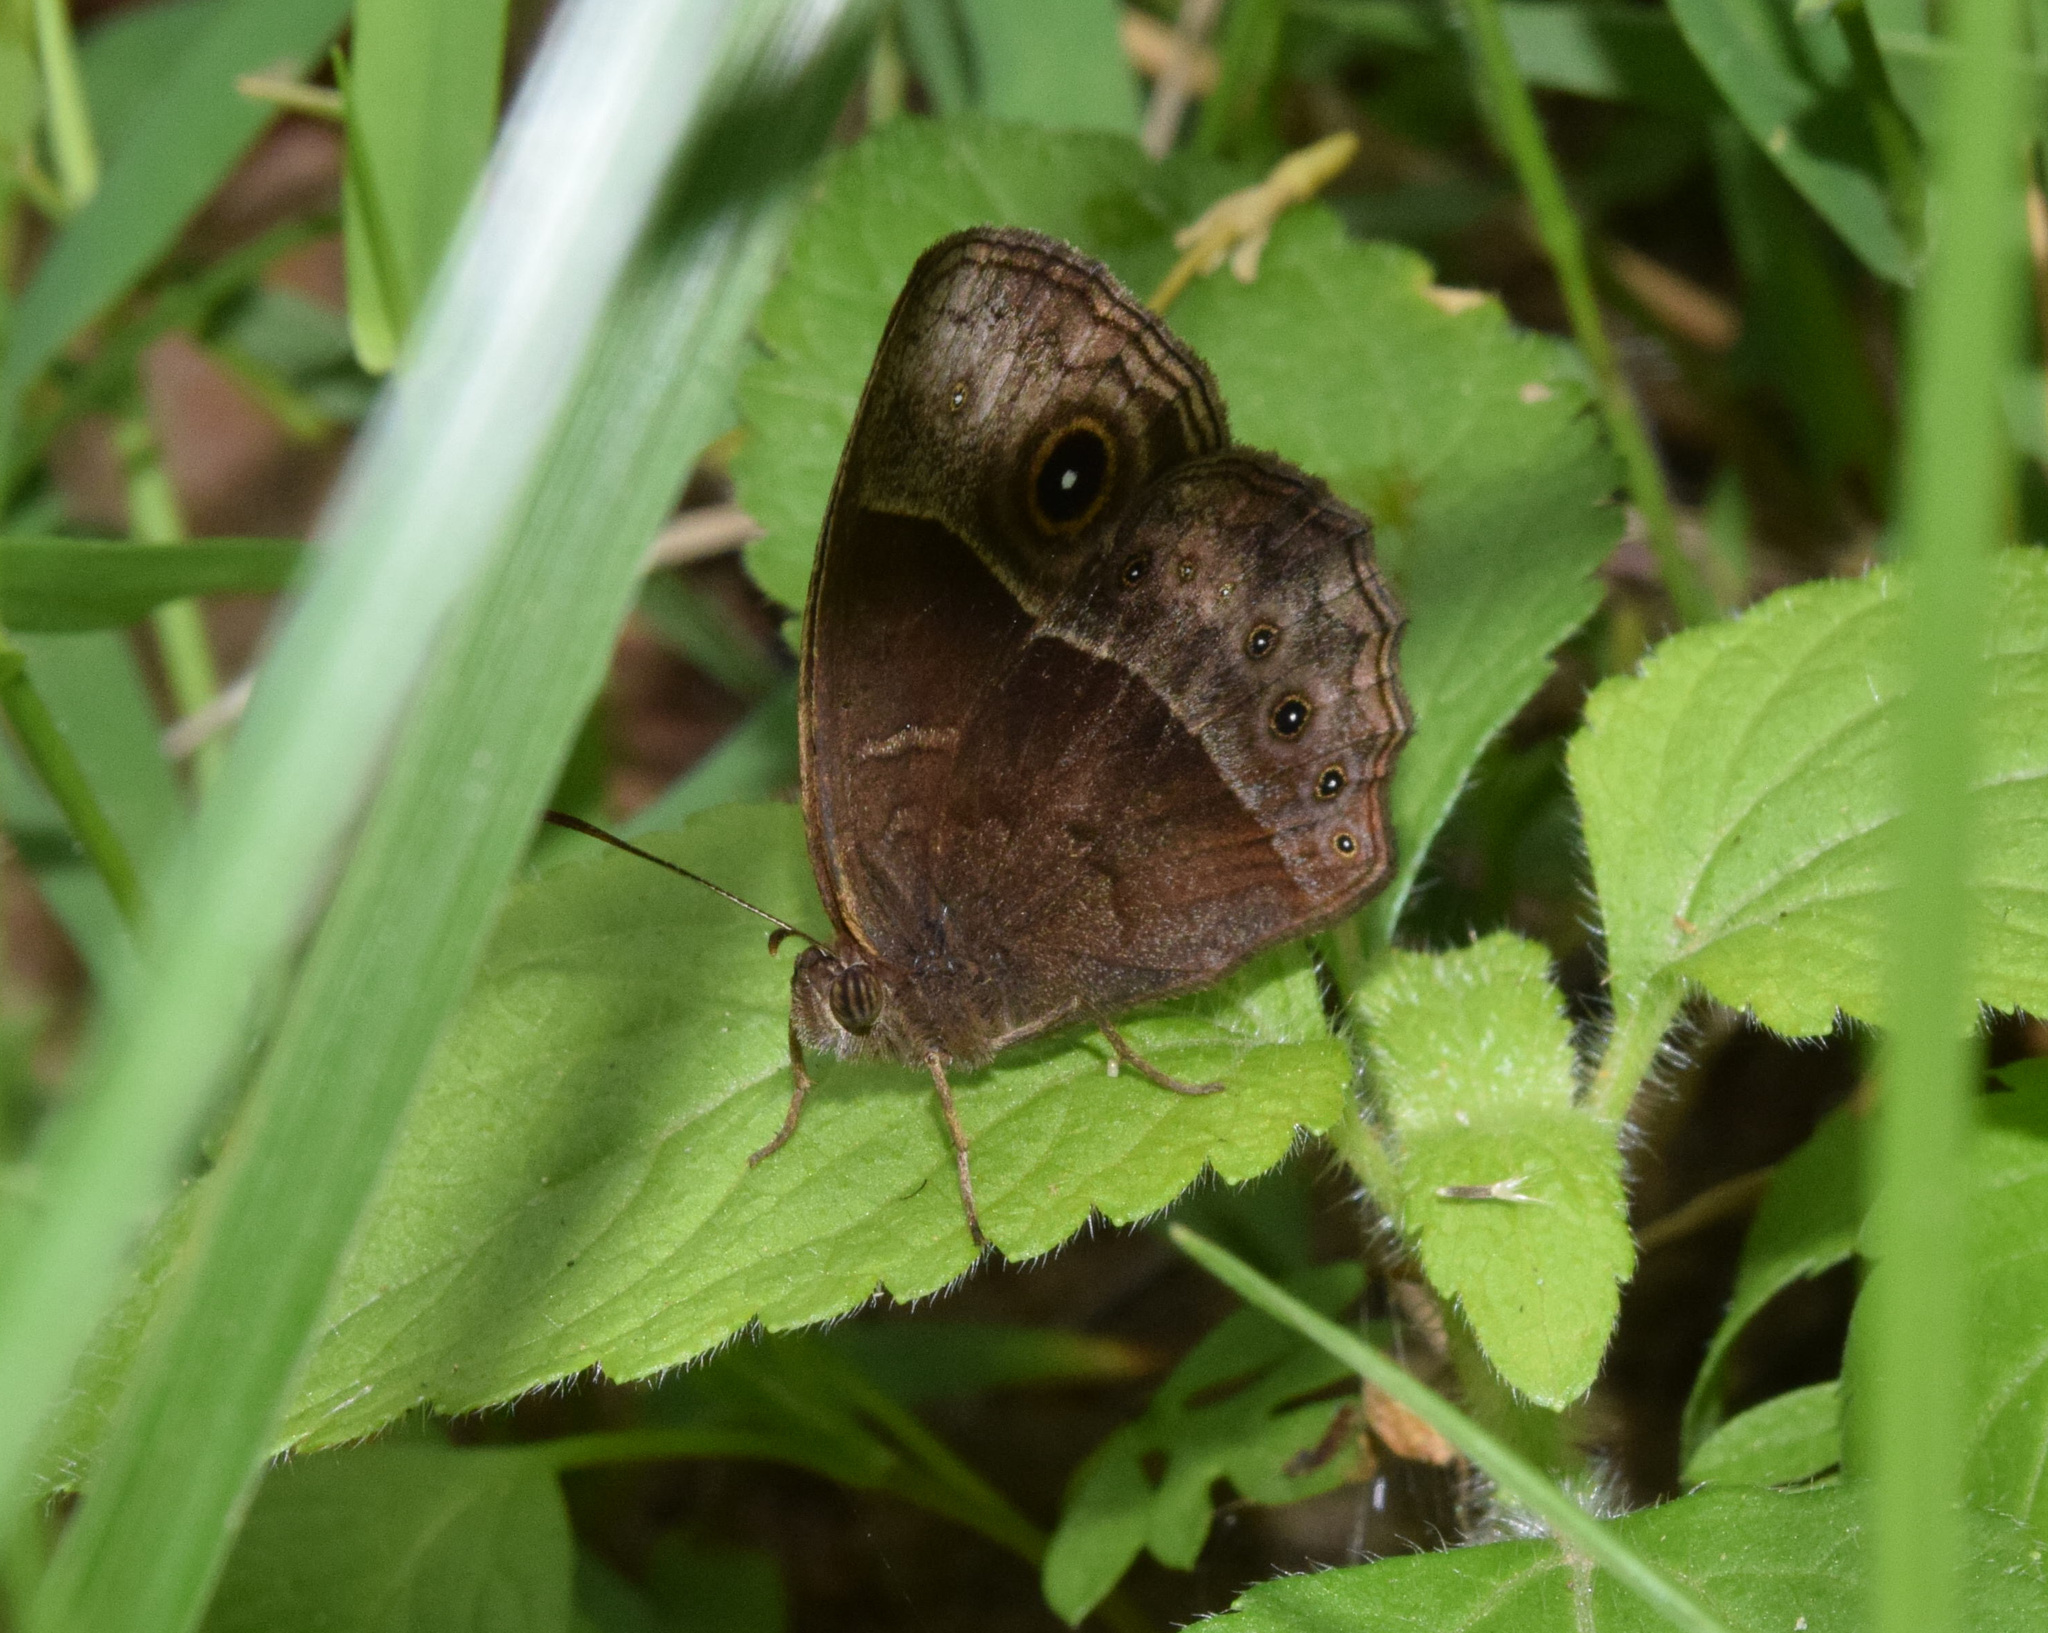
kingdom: Animalia
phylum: Arthropoda
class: Insecta
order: Lepidoptera
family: Nymphalidae
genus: Mycalesis
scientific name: Mycalesis rhacotis
